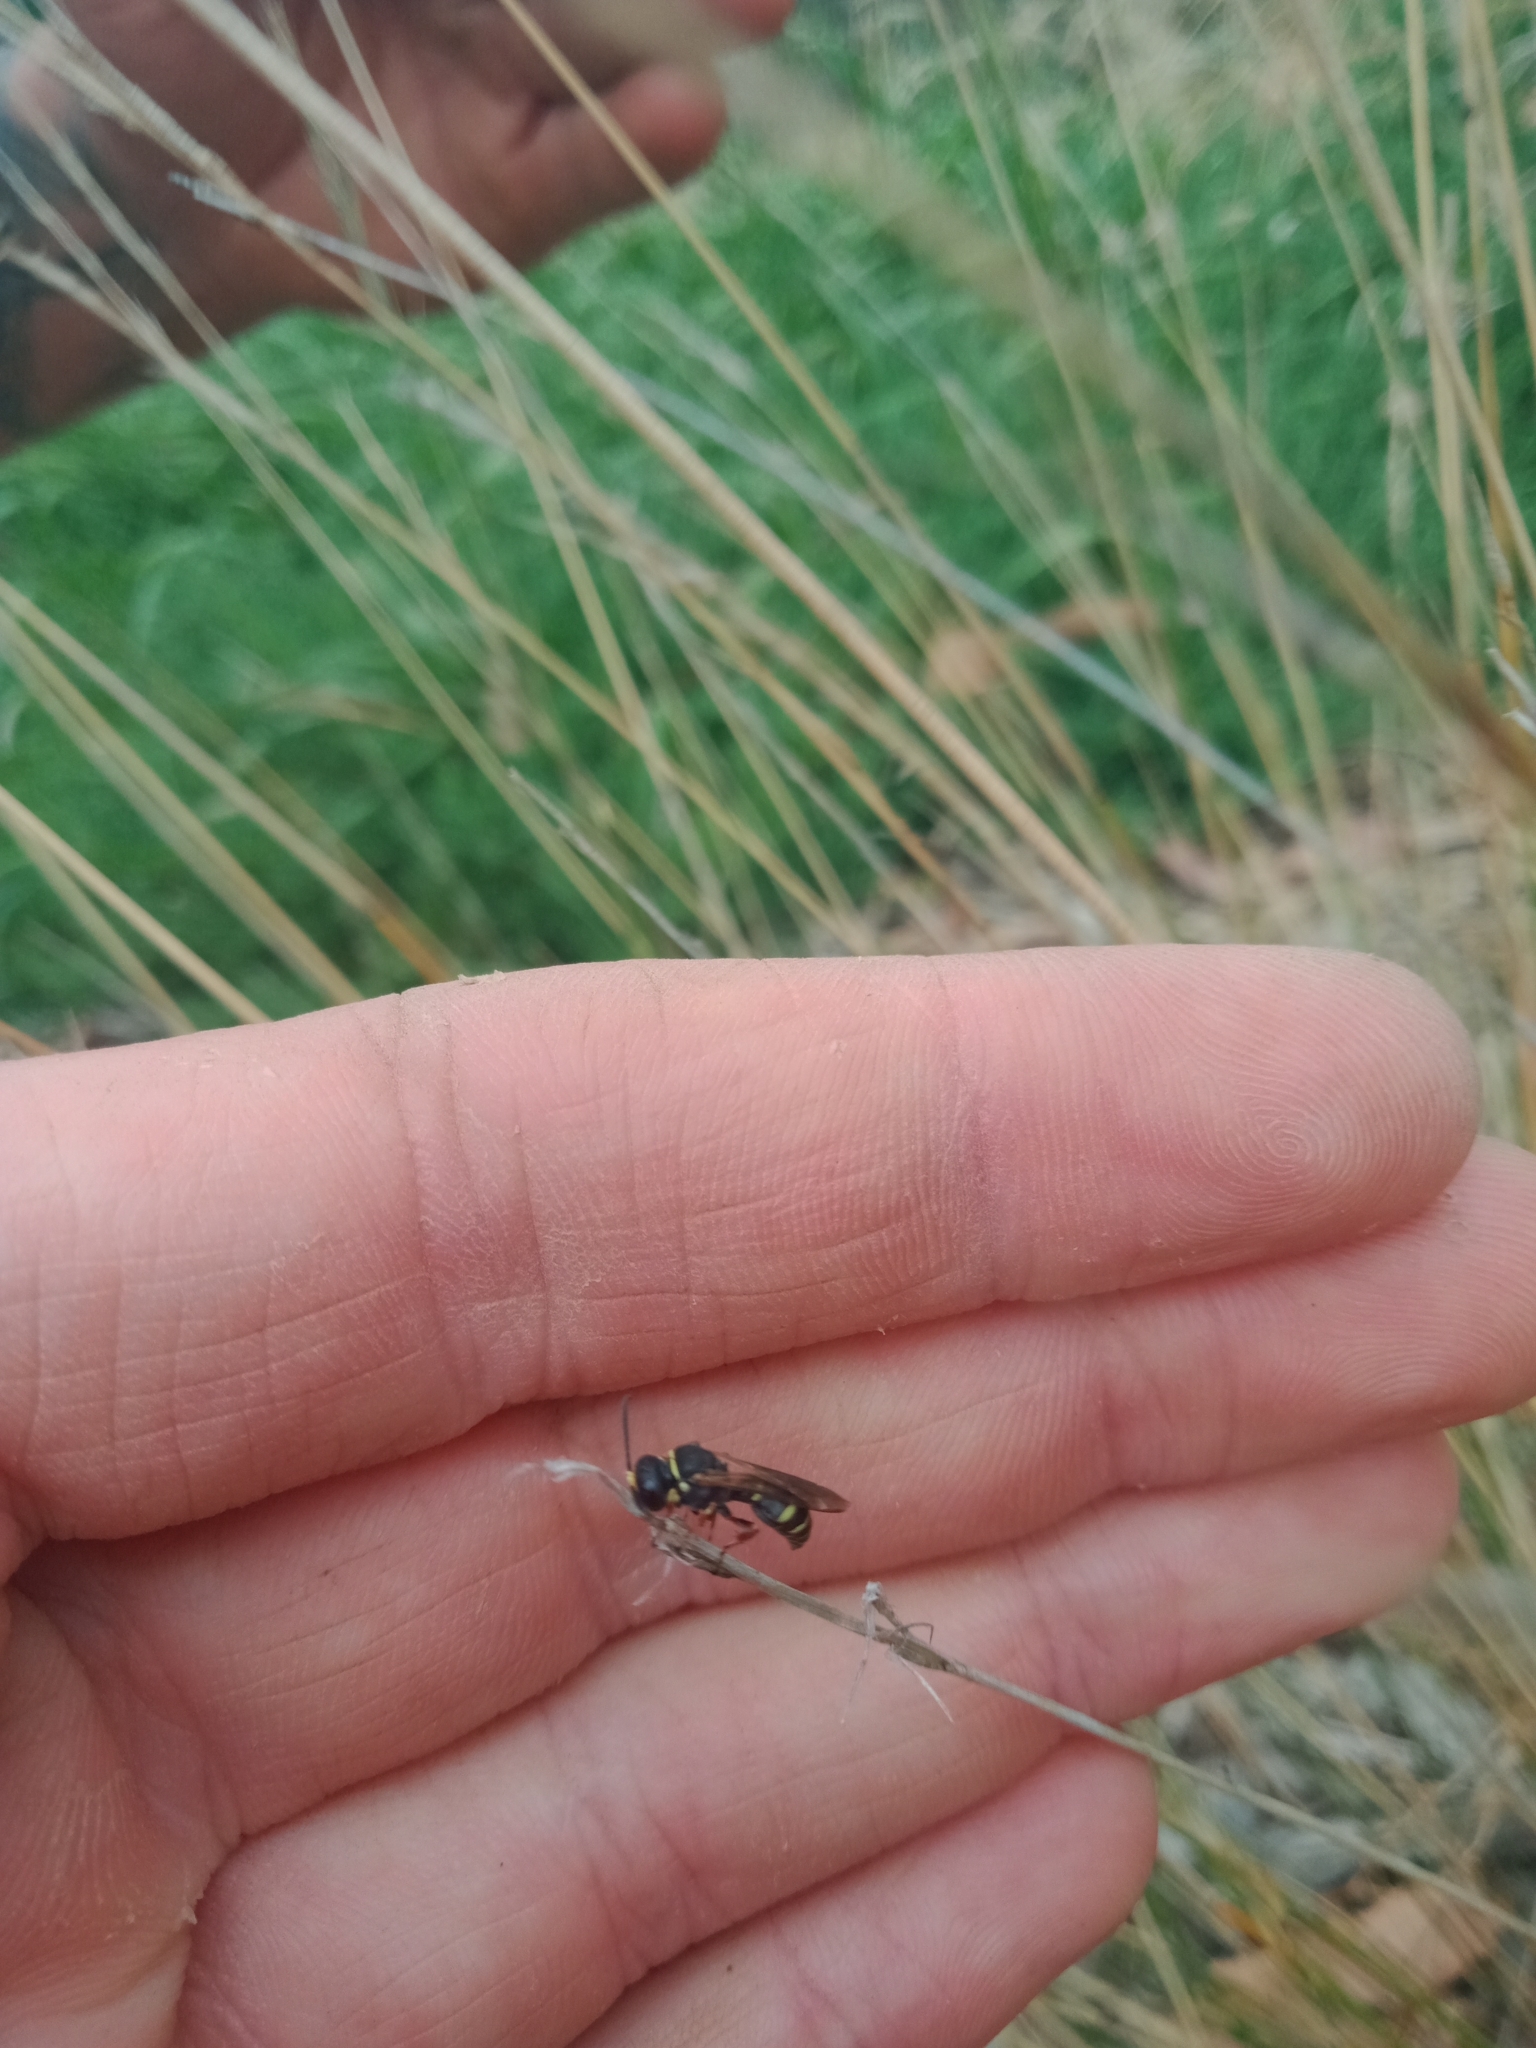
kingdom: Animalia
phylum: Arthropoda
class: Insecta
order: Hymenoptera
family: Crabronidae
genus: Austrogorytes
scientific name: Austrogorytes spryi
